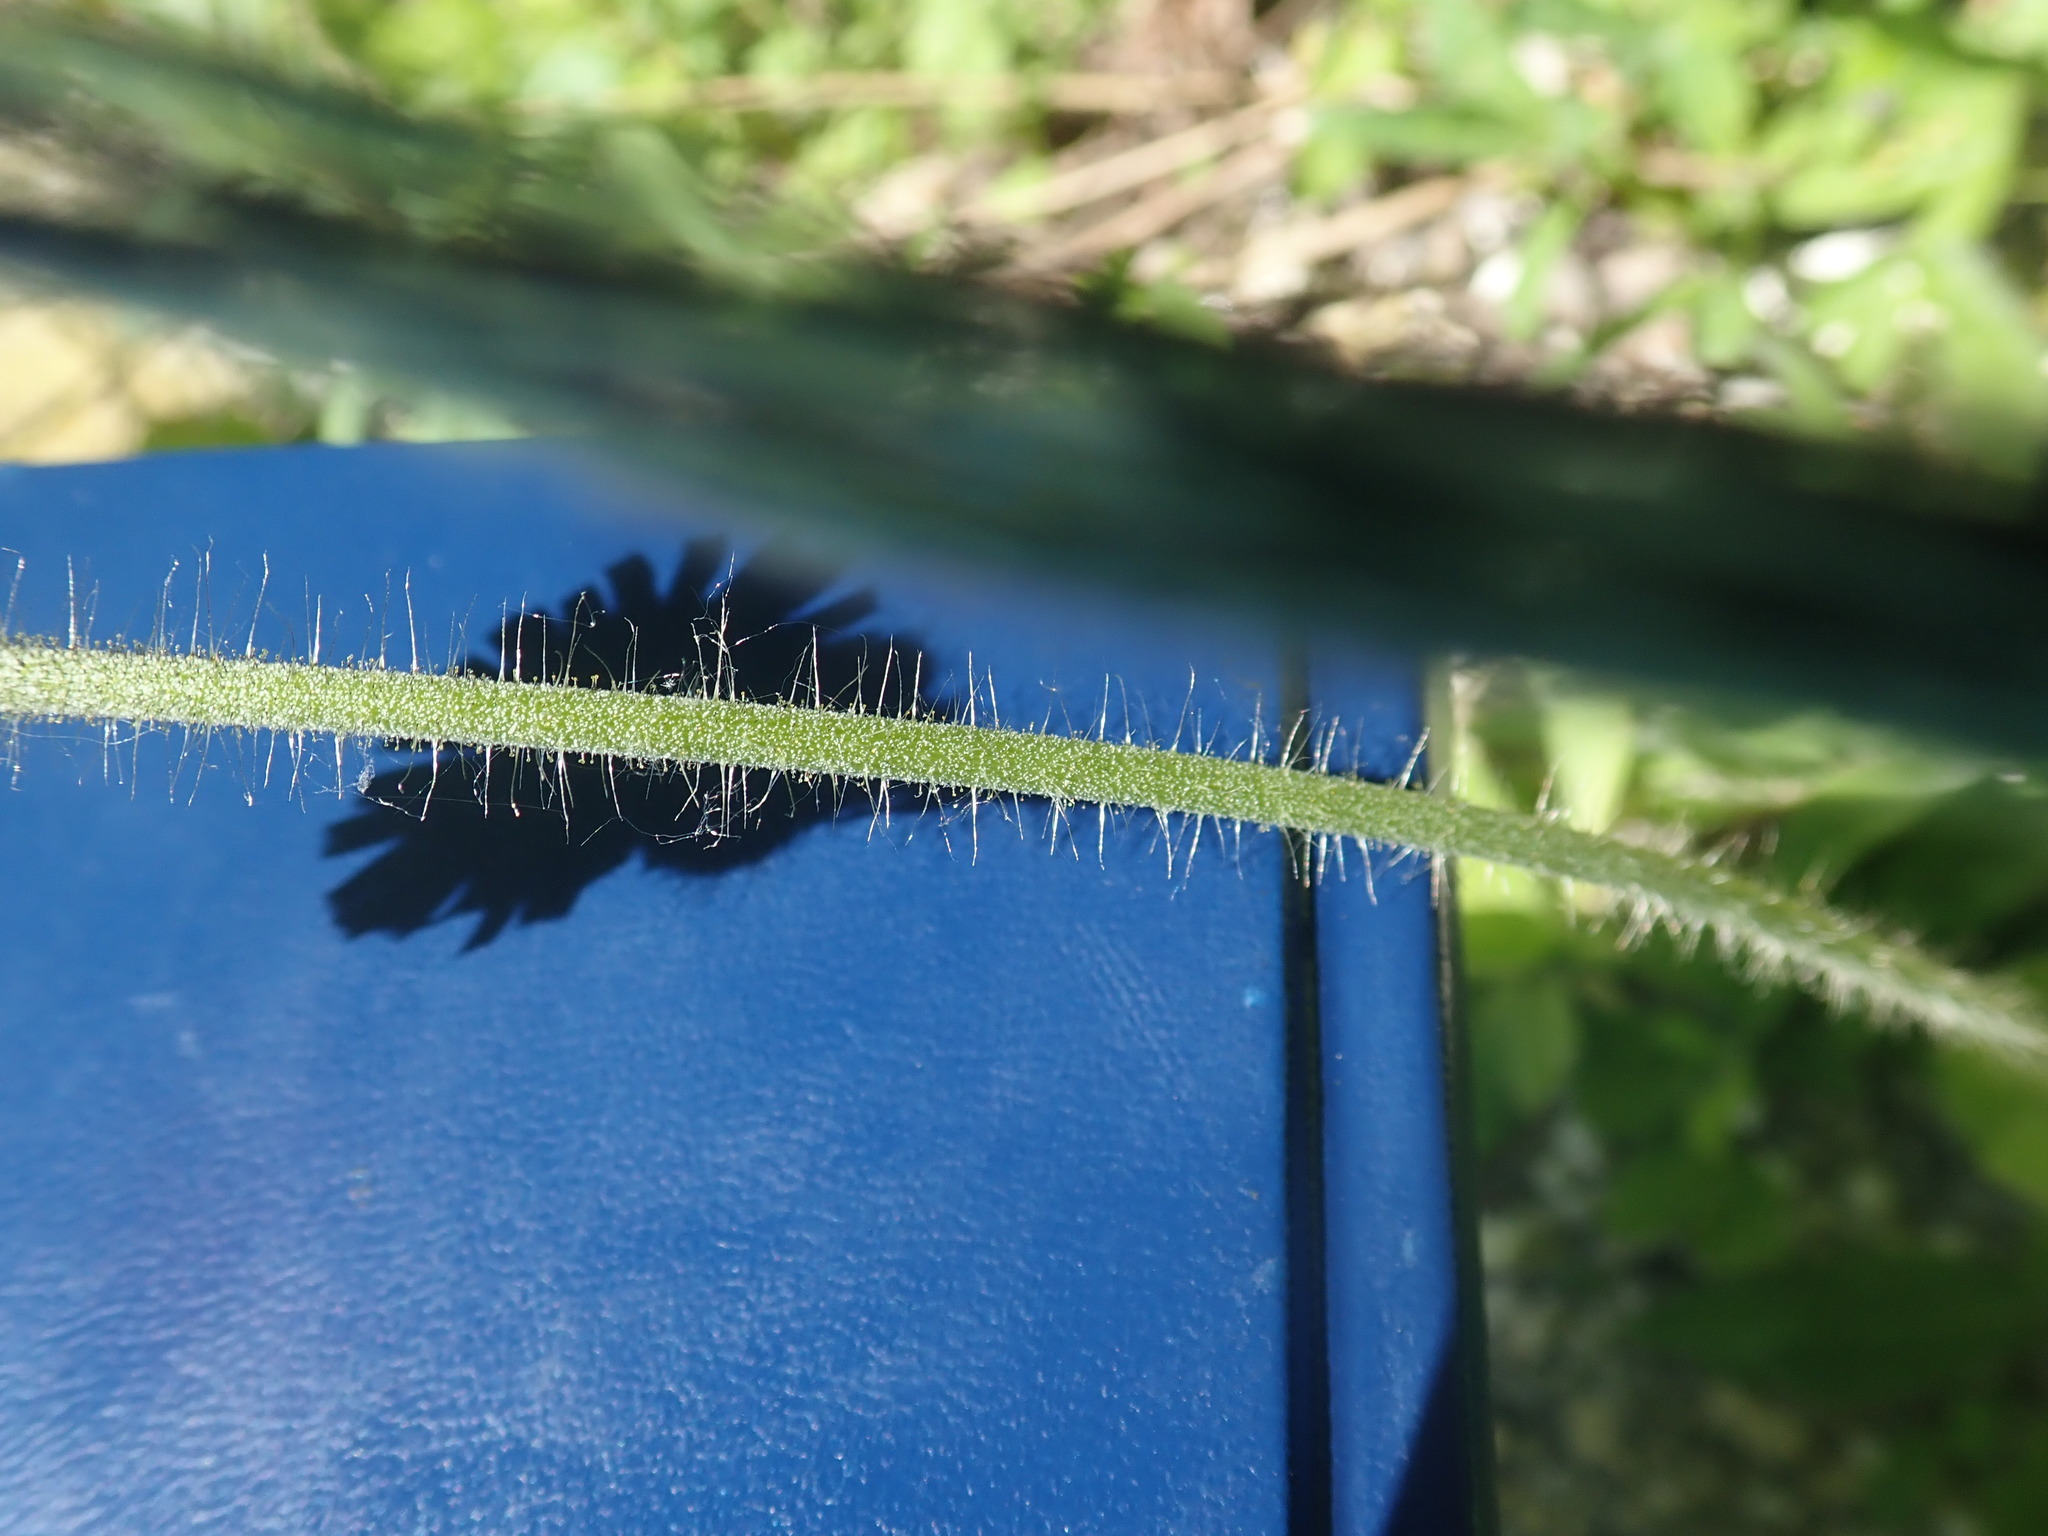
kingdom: Plantae
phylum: Tracheophyta
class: Magnoliopsida
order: Asterales
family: Asteraceae
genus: Pilosella
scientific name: Pilosella aurantiaca
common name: Fox-and-cubs
